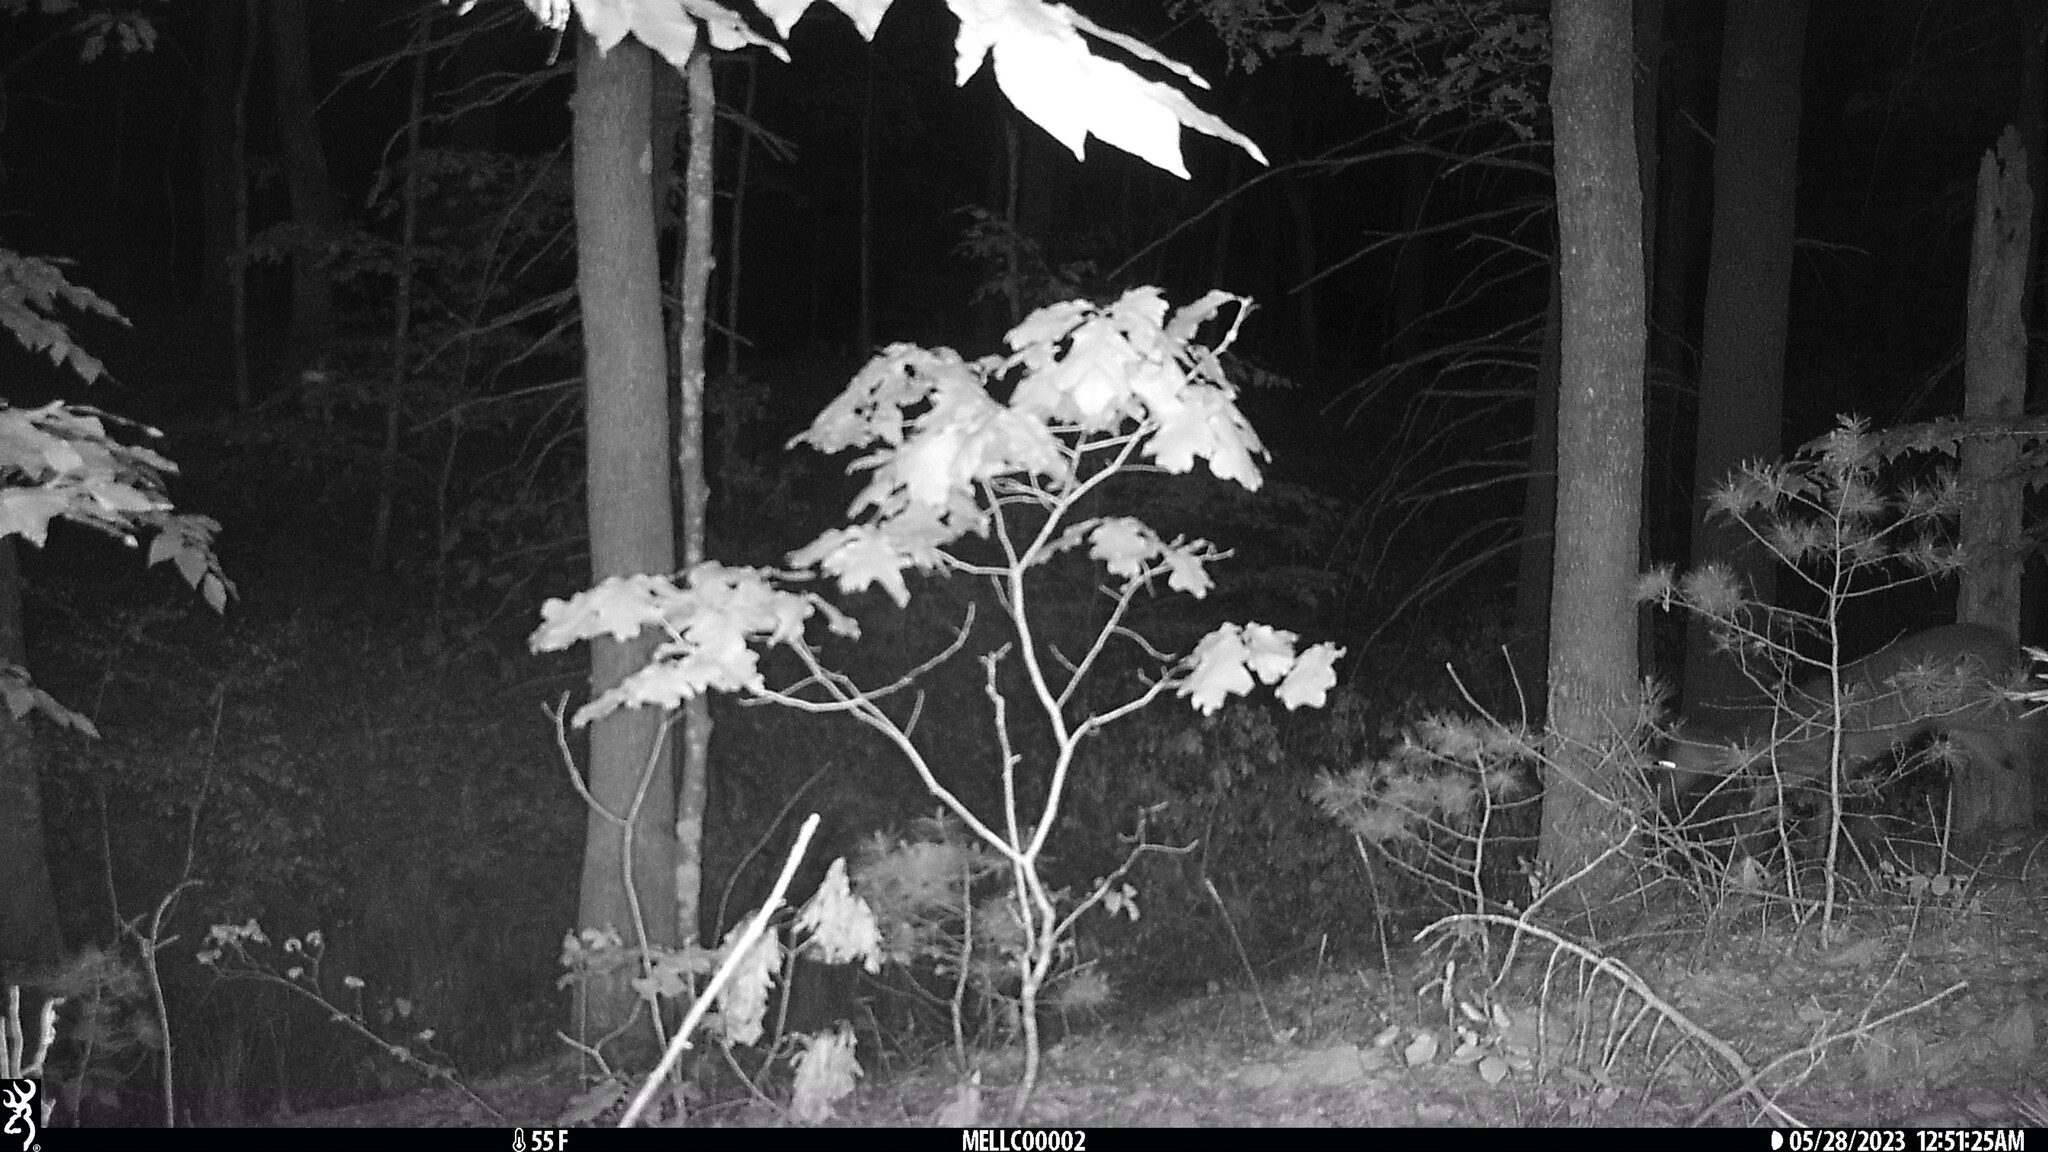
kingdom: Animalia
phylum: Chordata
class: Mammalia
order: Artiodactyla
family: Cervidae
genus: Odocoileus
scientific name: Odocoileus virginianus
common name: White-tailed deer
